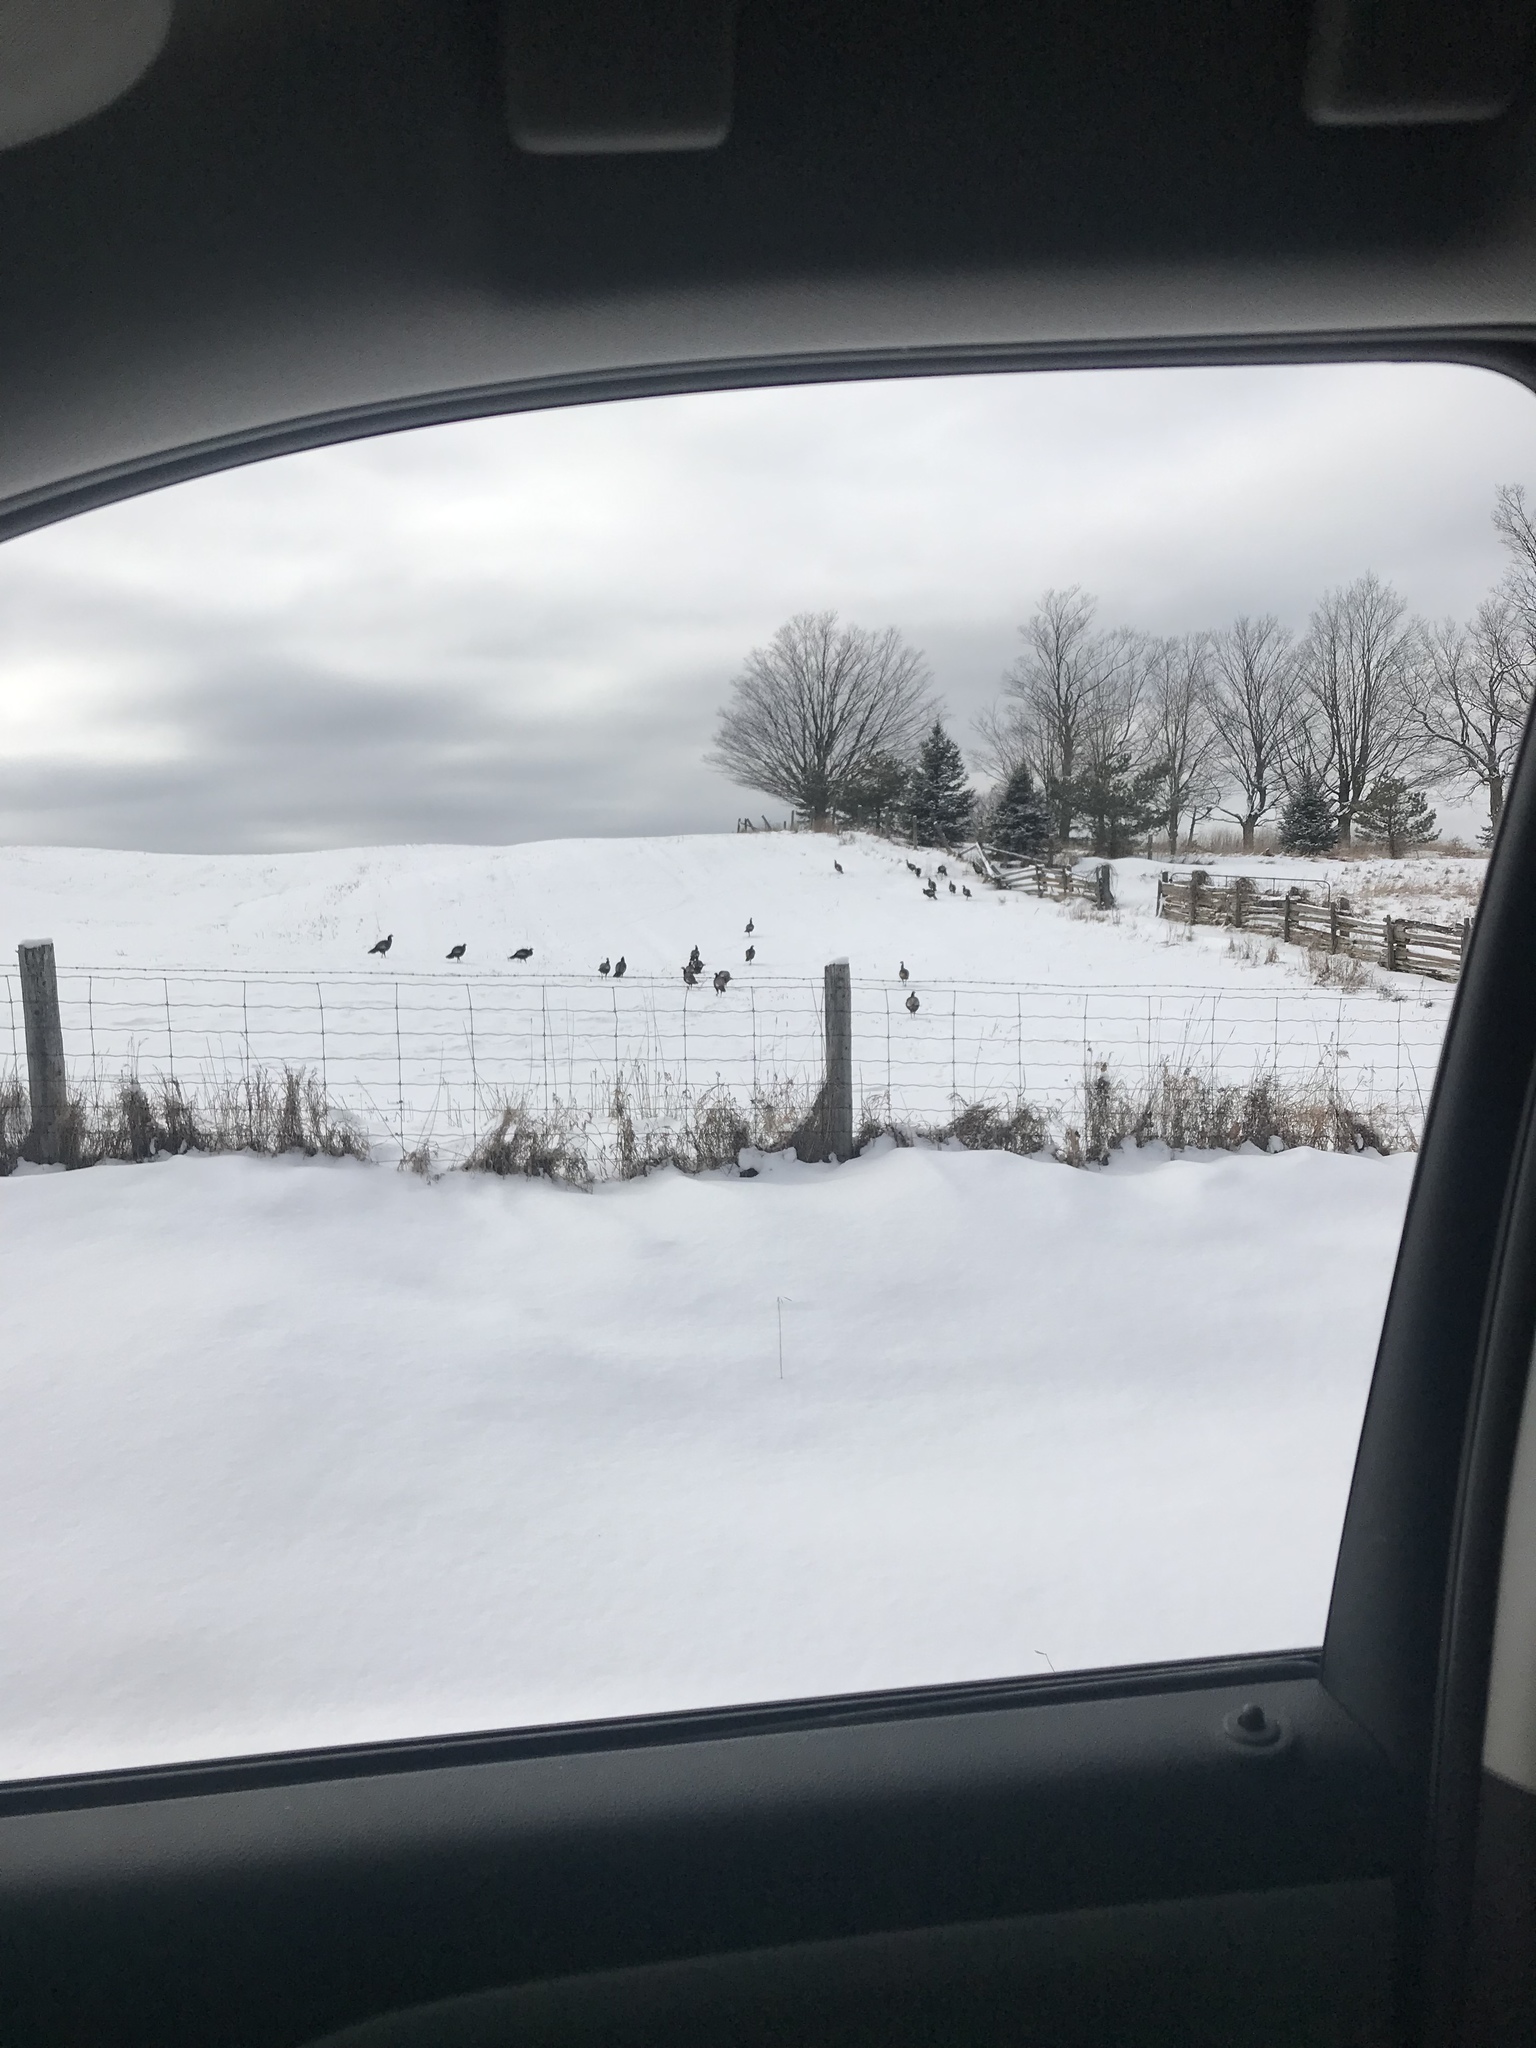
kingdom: Animalia
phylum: Chordata
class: Aves
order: Galliformes
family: Phasianidae
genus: Meleagris
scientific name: Meleagris gallopavo
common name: Wild turkey
